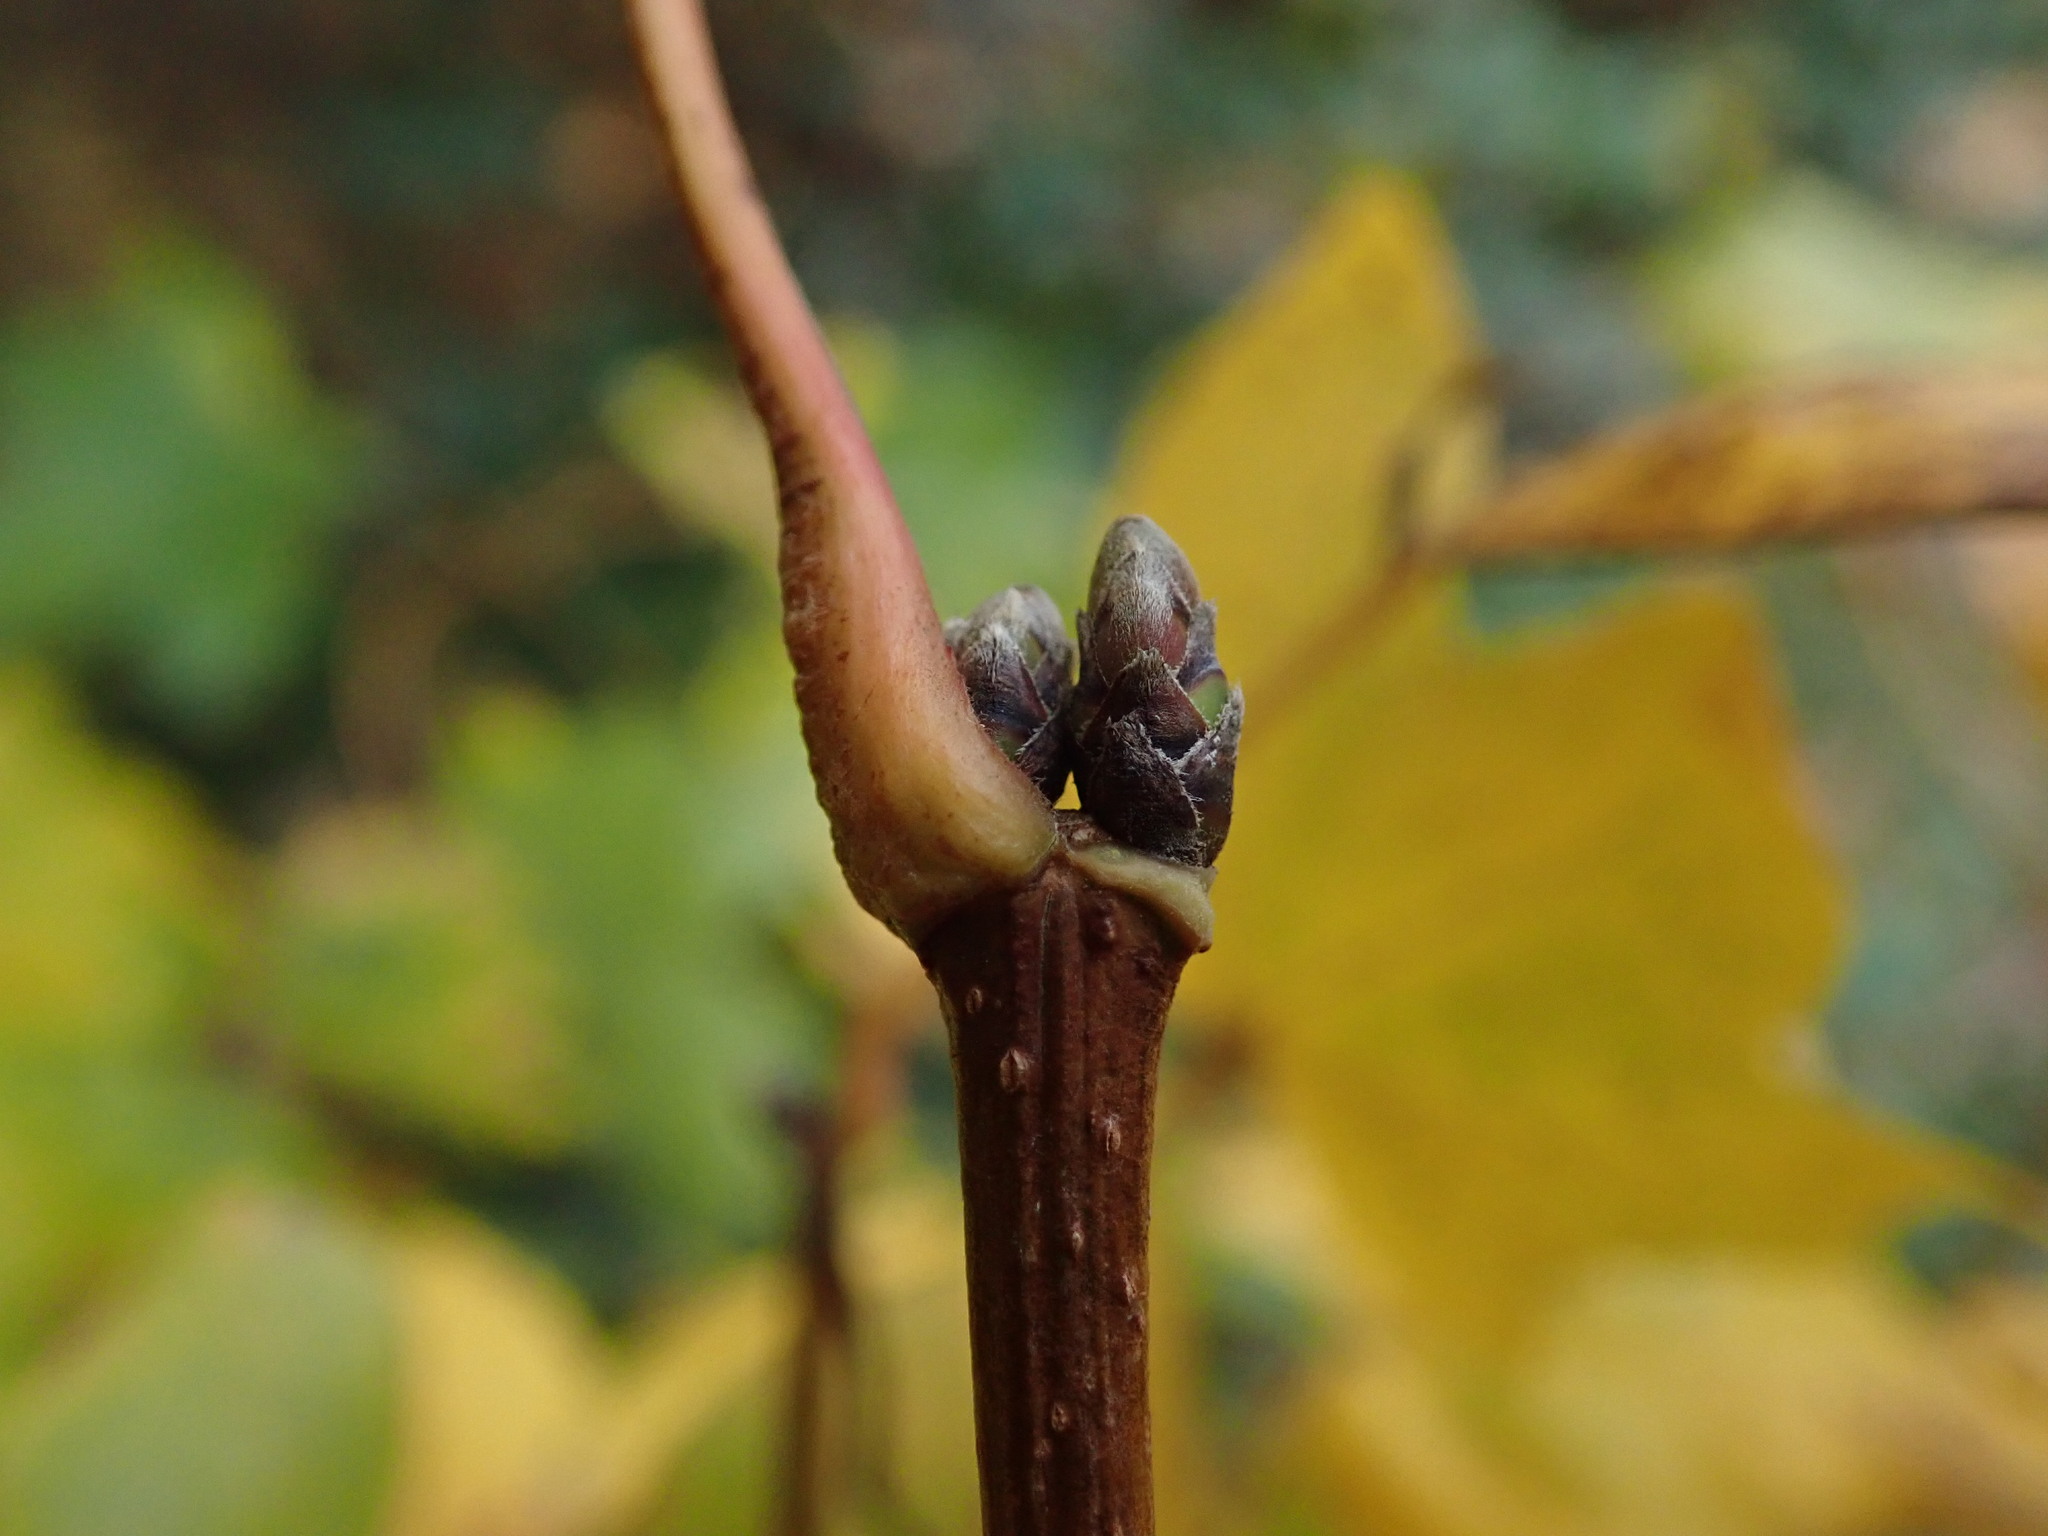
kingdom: Plantae
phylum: Tracheophyta
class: Magnoliopsida
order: Sapindales
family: Sapindaceae
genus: Acer
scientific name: Acer campestre
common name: Field maple
